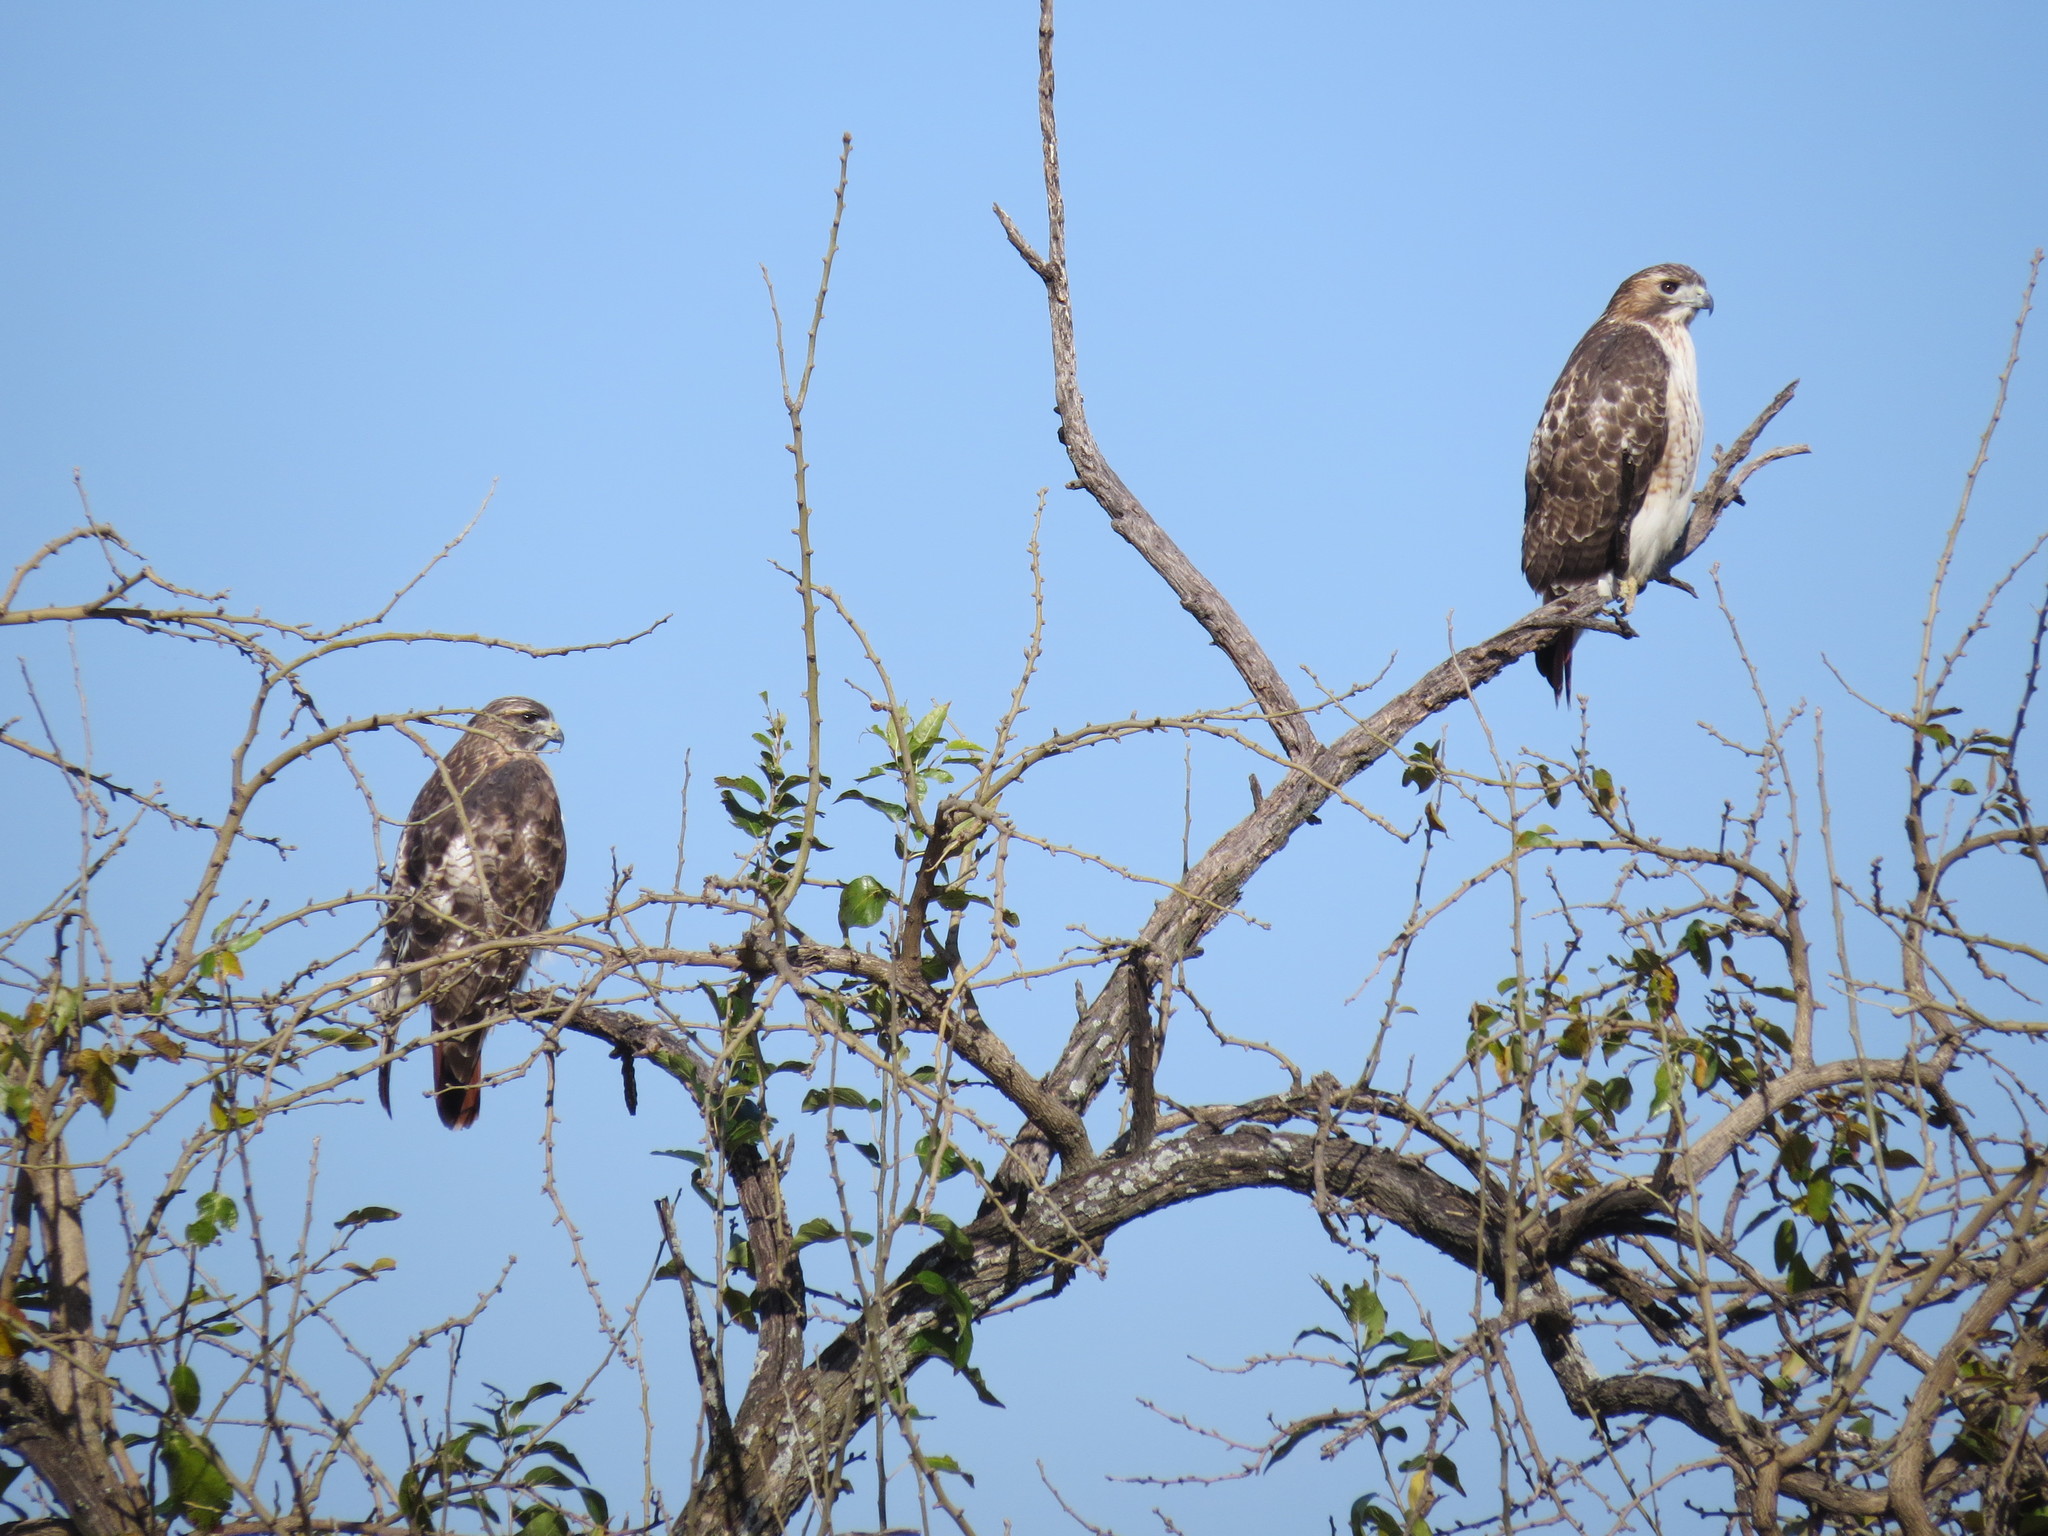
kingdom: Animalia
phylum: Chordata
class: Aves
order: Accipitriformes
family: Accipitridae
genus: Buteo
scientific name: Buteo jamaicensis
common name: Red-tailed hawk
